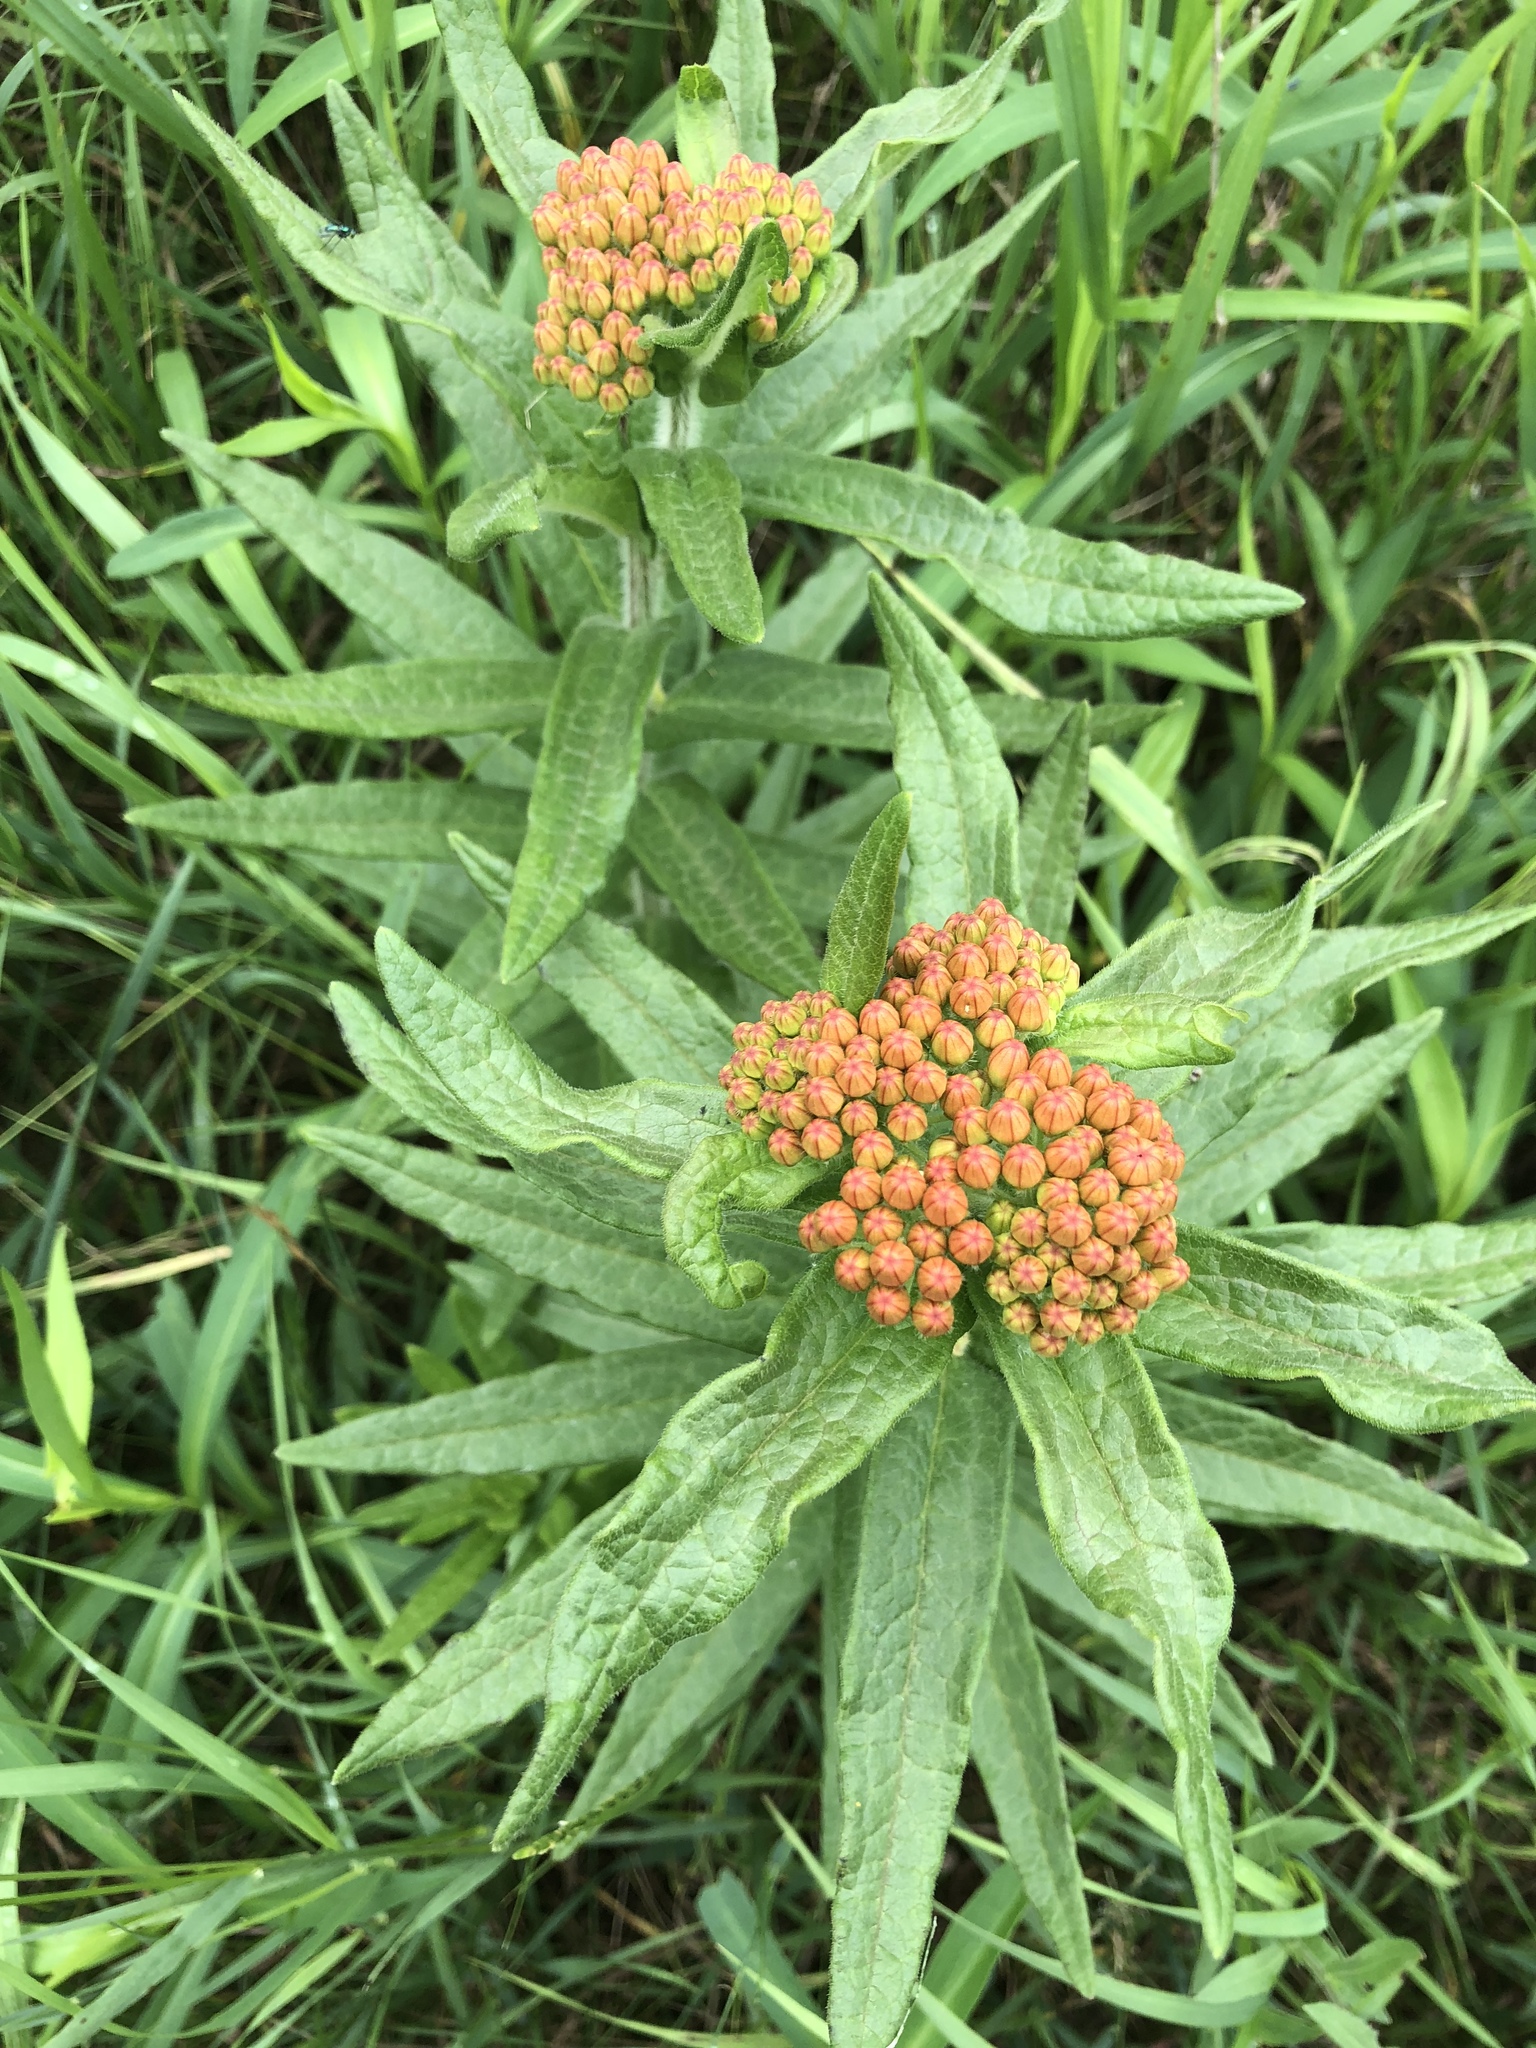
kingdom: Plantae
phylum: Tracheophyta
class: Magnoliopsida
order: Gentianales
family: Apocynaceae
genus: Asclepias
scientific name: Asclepias tuberosa
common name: Butterfly milkweed
